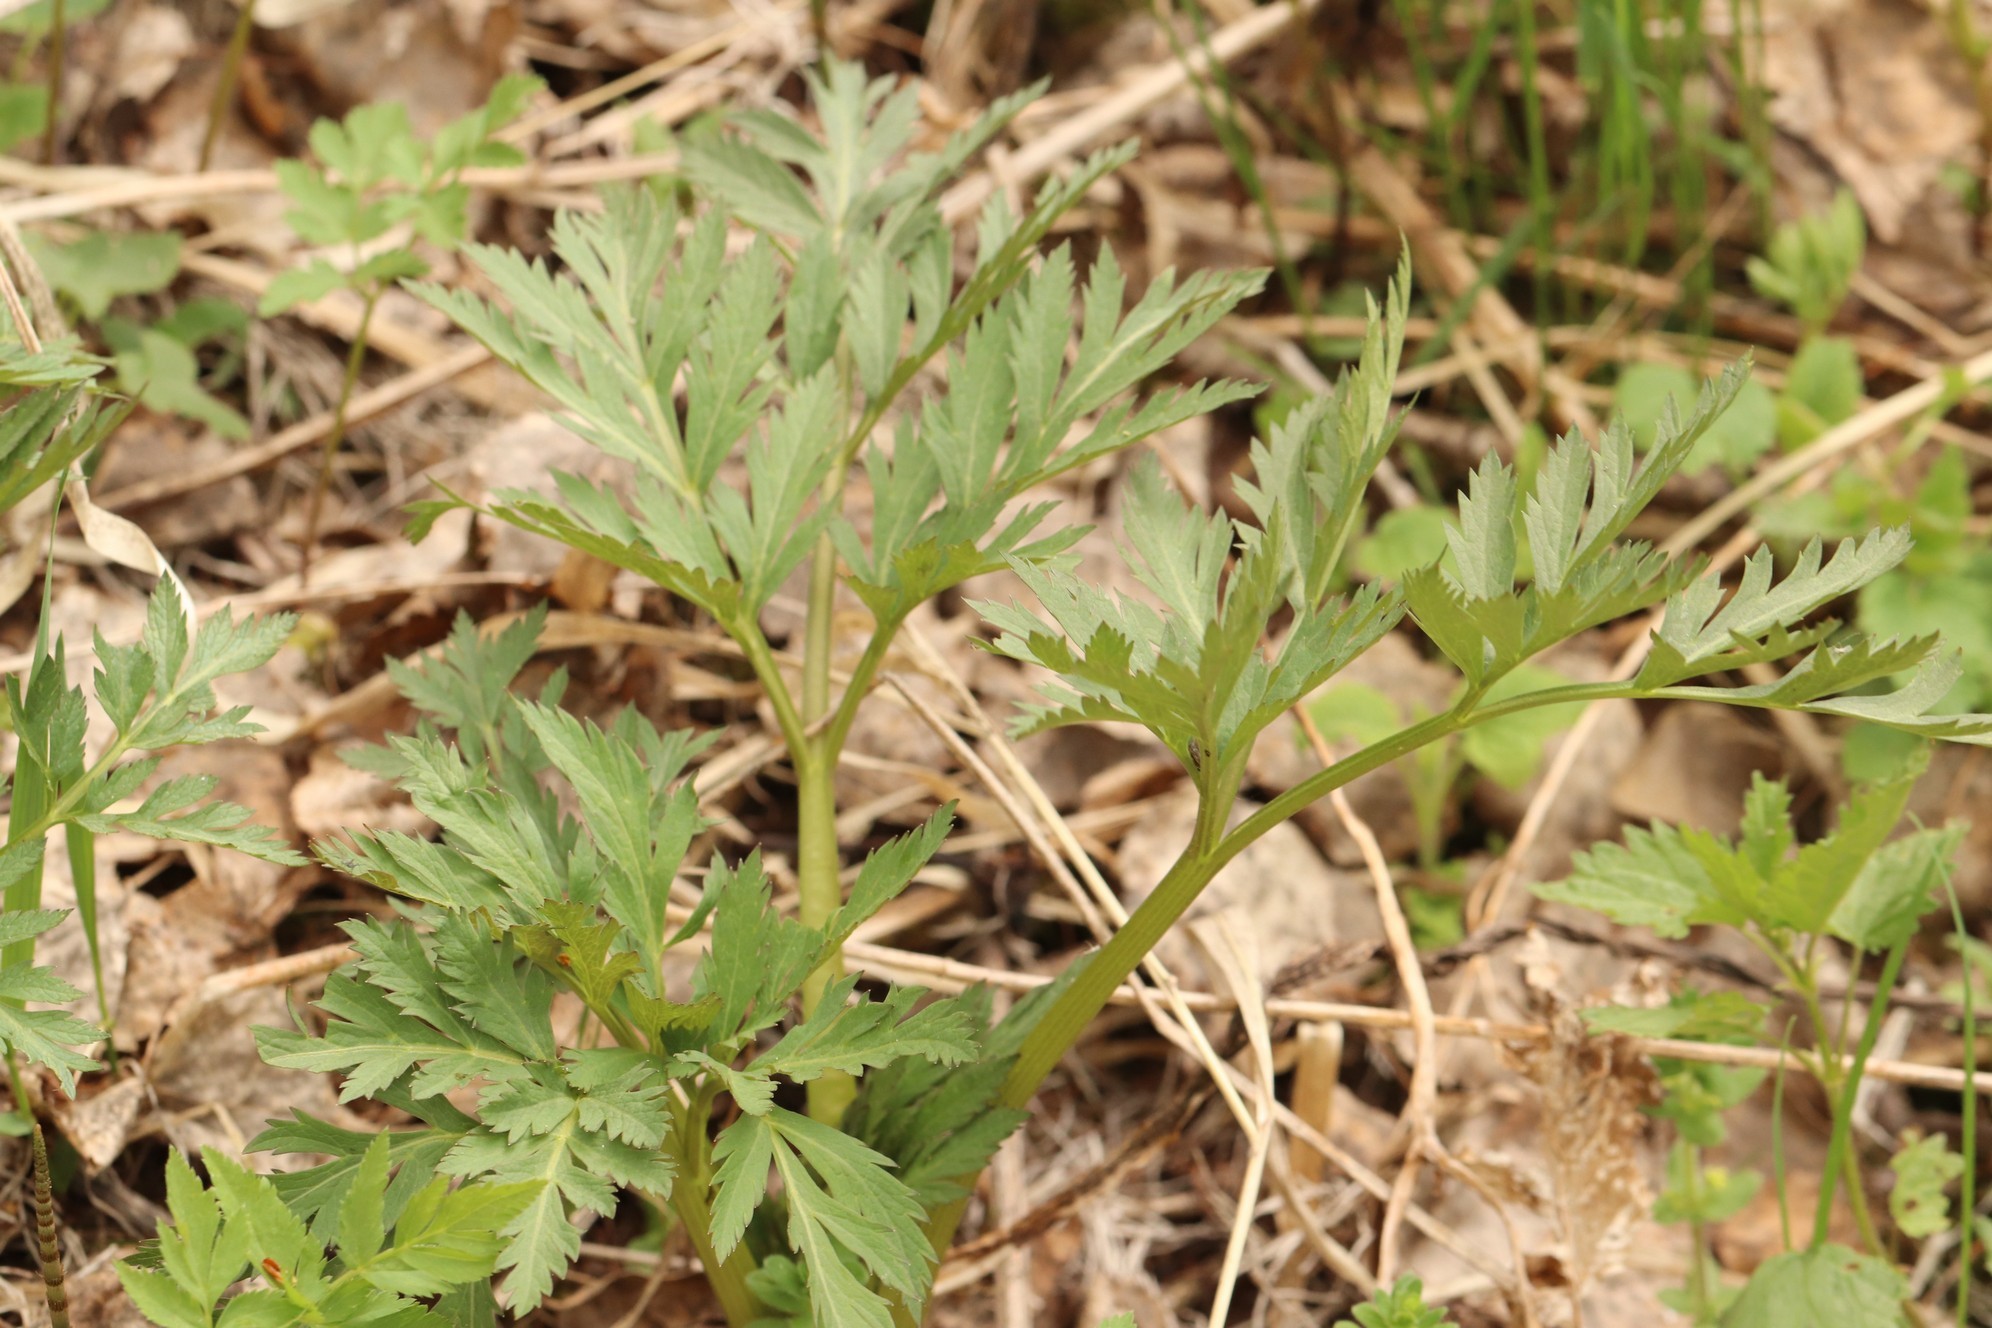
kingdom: Plantae
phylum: Tracheophyta
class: Magnoliopsida
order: Apiales
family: Apiaceae
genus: Pleurospermum
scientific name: Pleurospermum uralense
